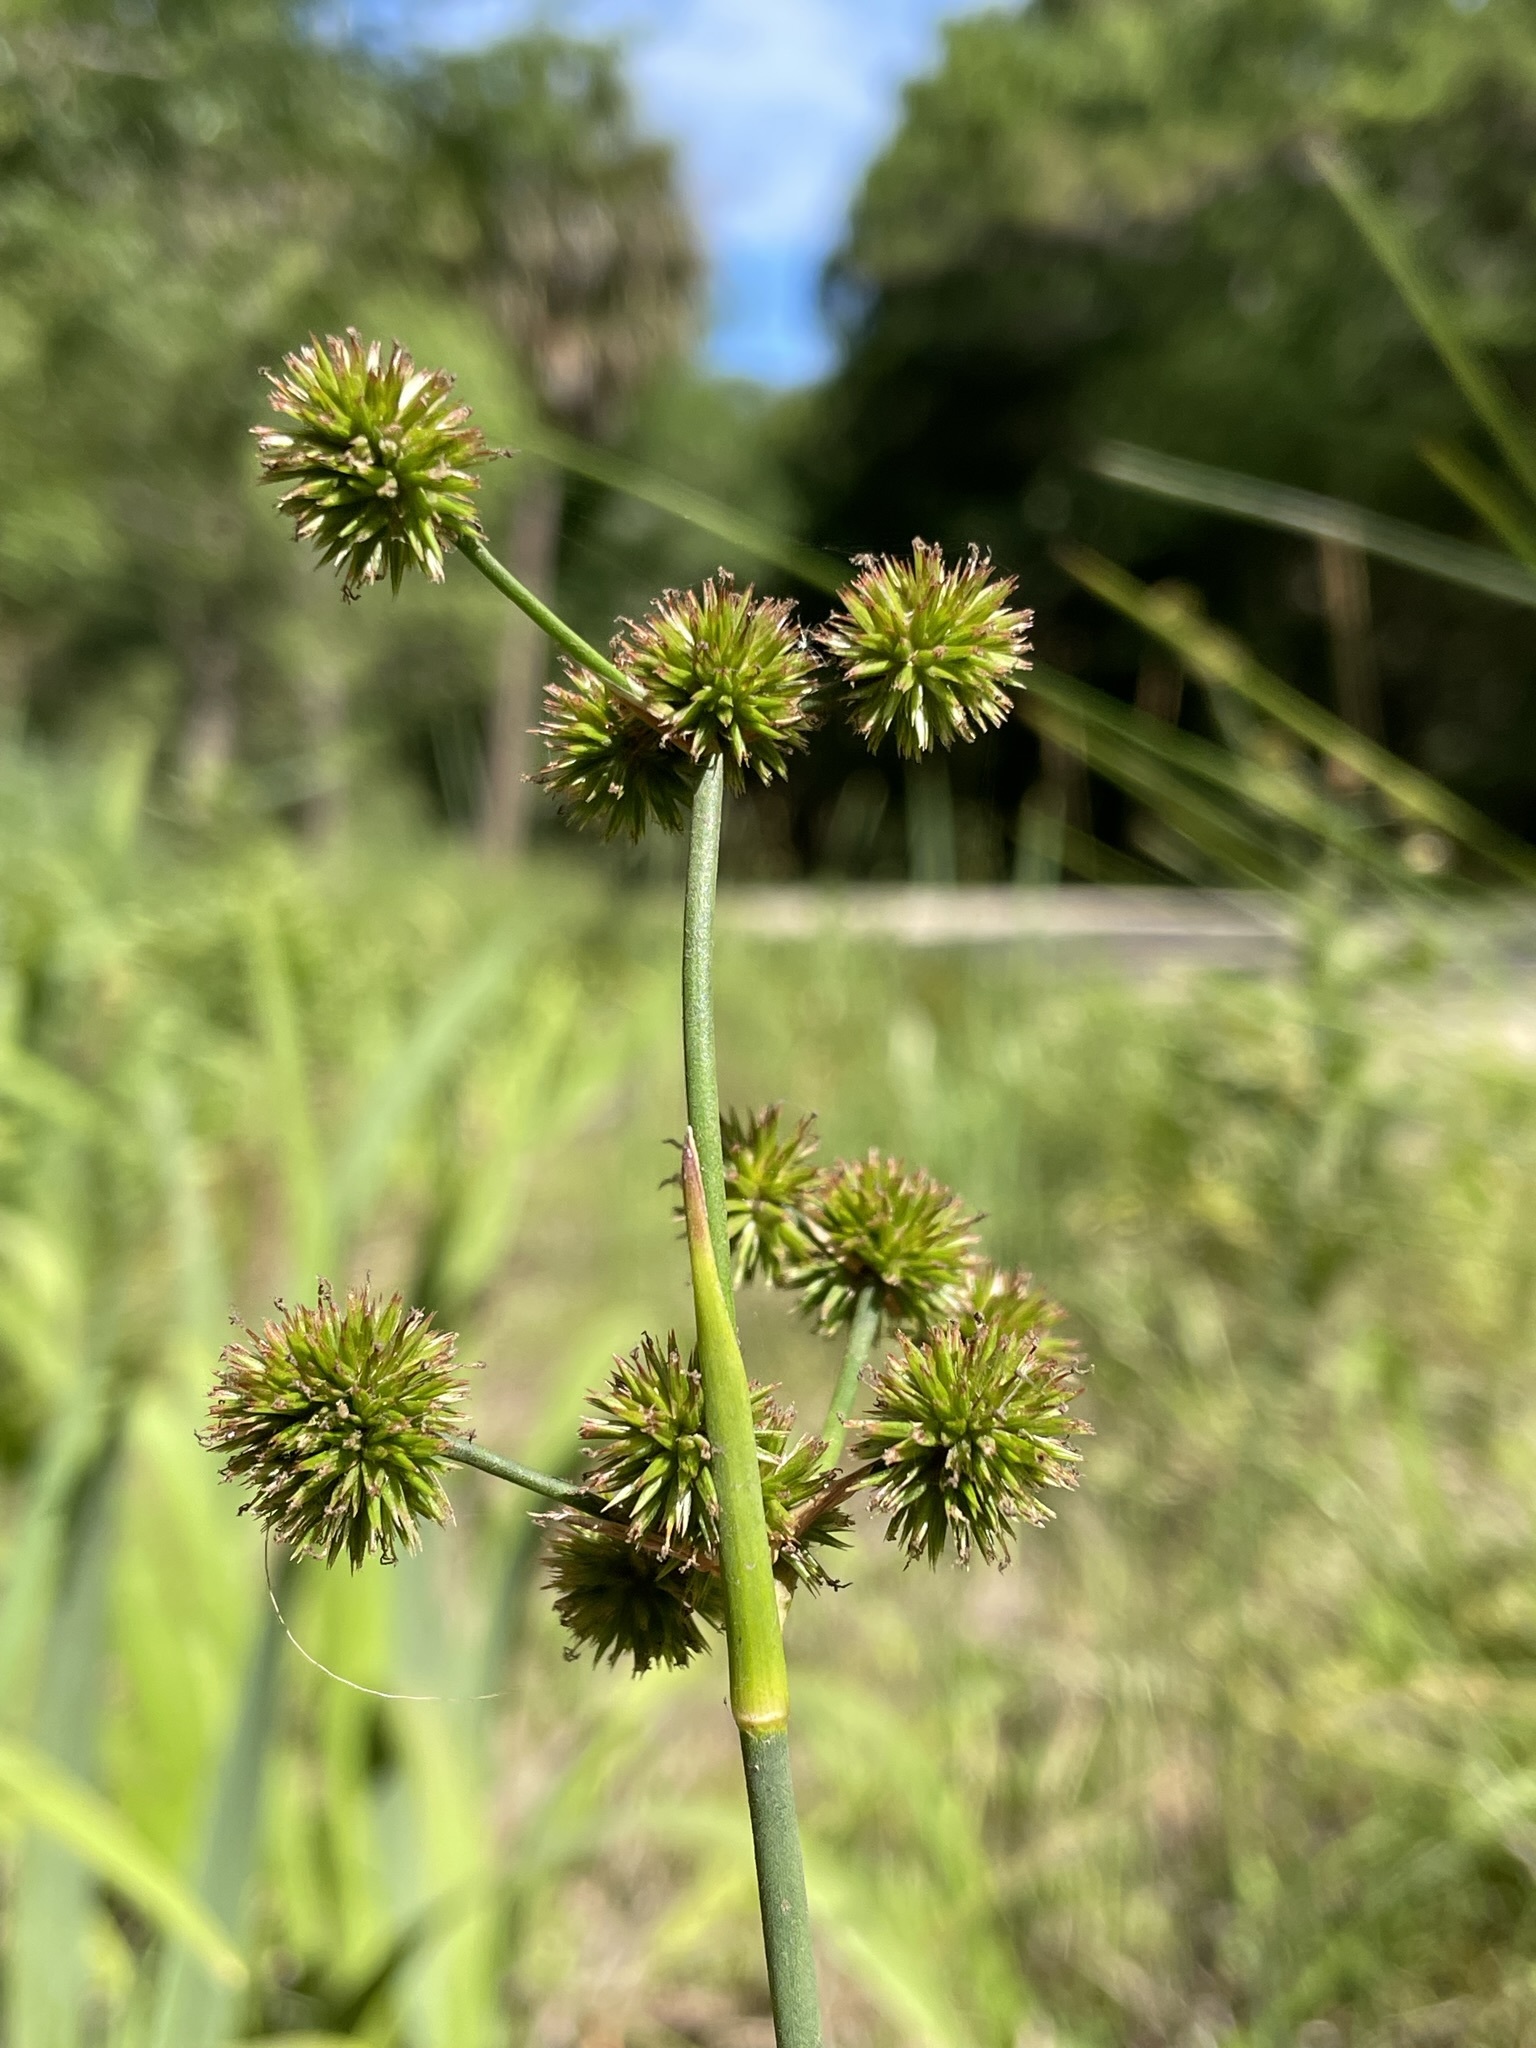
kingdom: Plantae
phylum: Tracheophyta
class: Liliopsida
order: Poales
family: Juncaceae
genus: Juncus
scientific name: Juncus megacephalus
